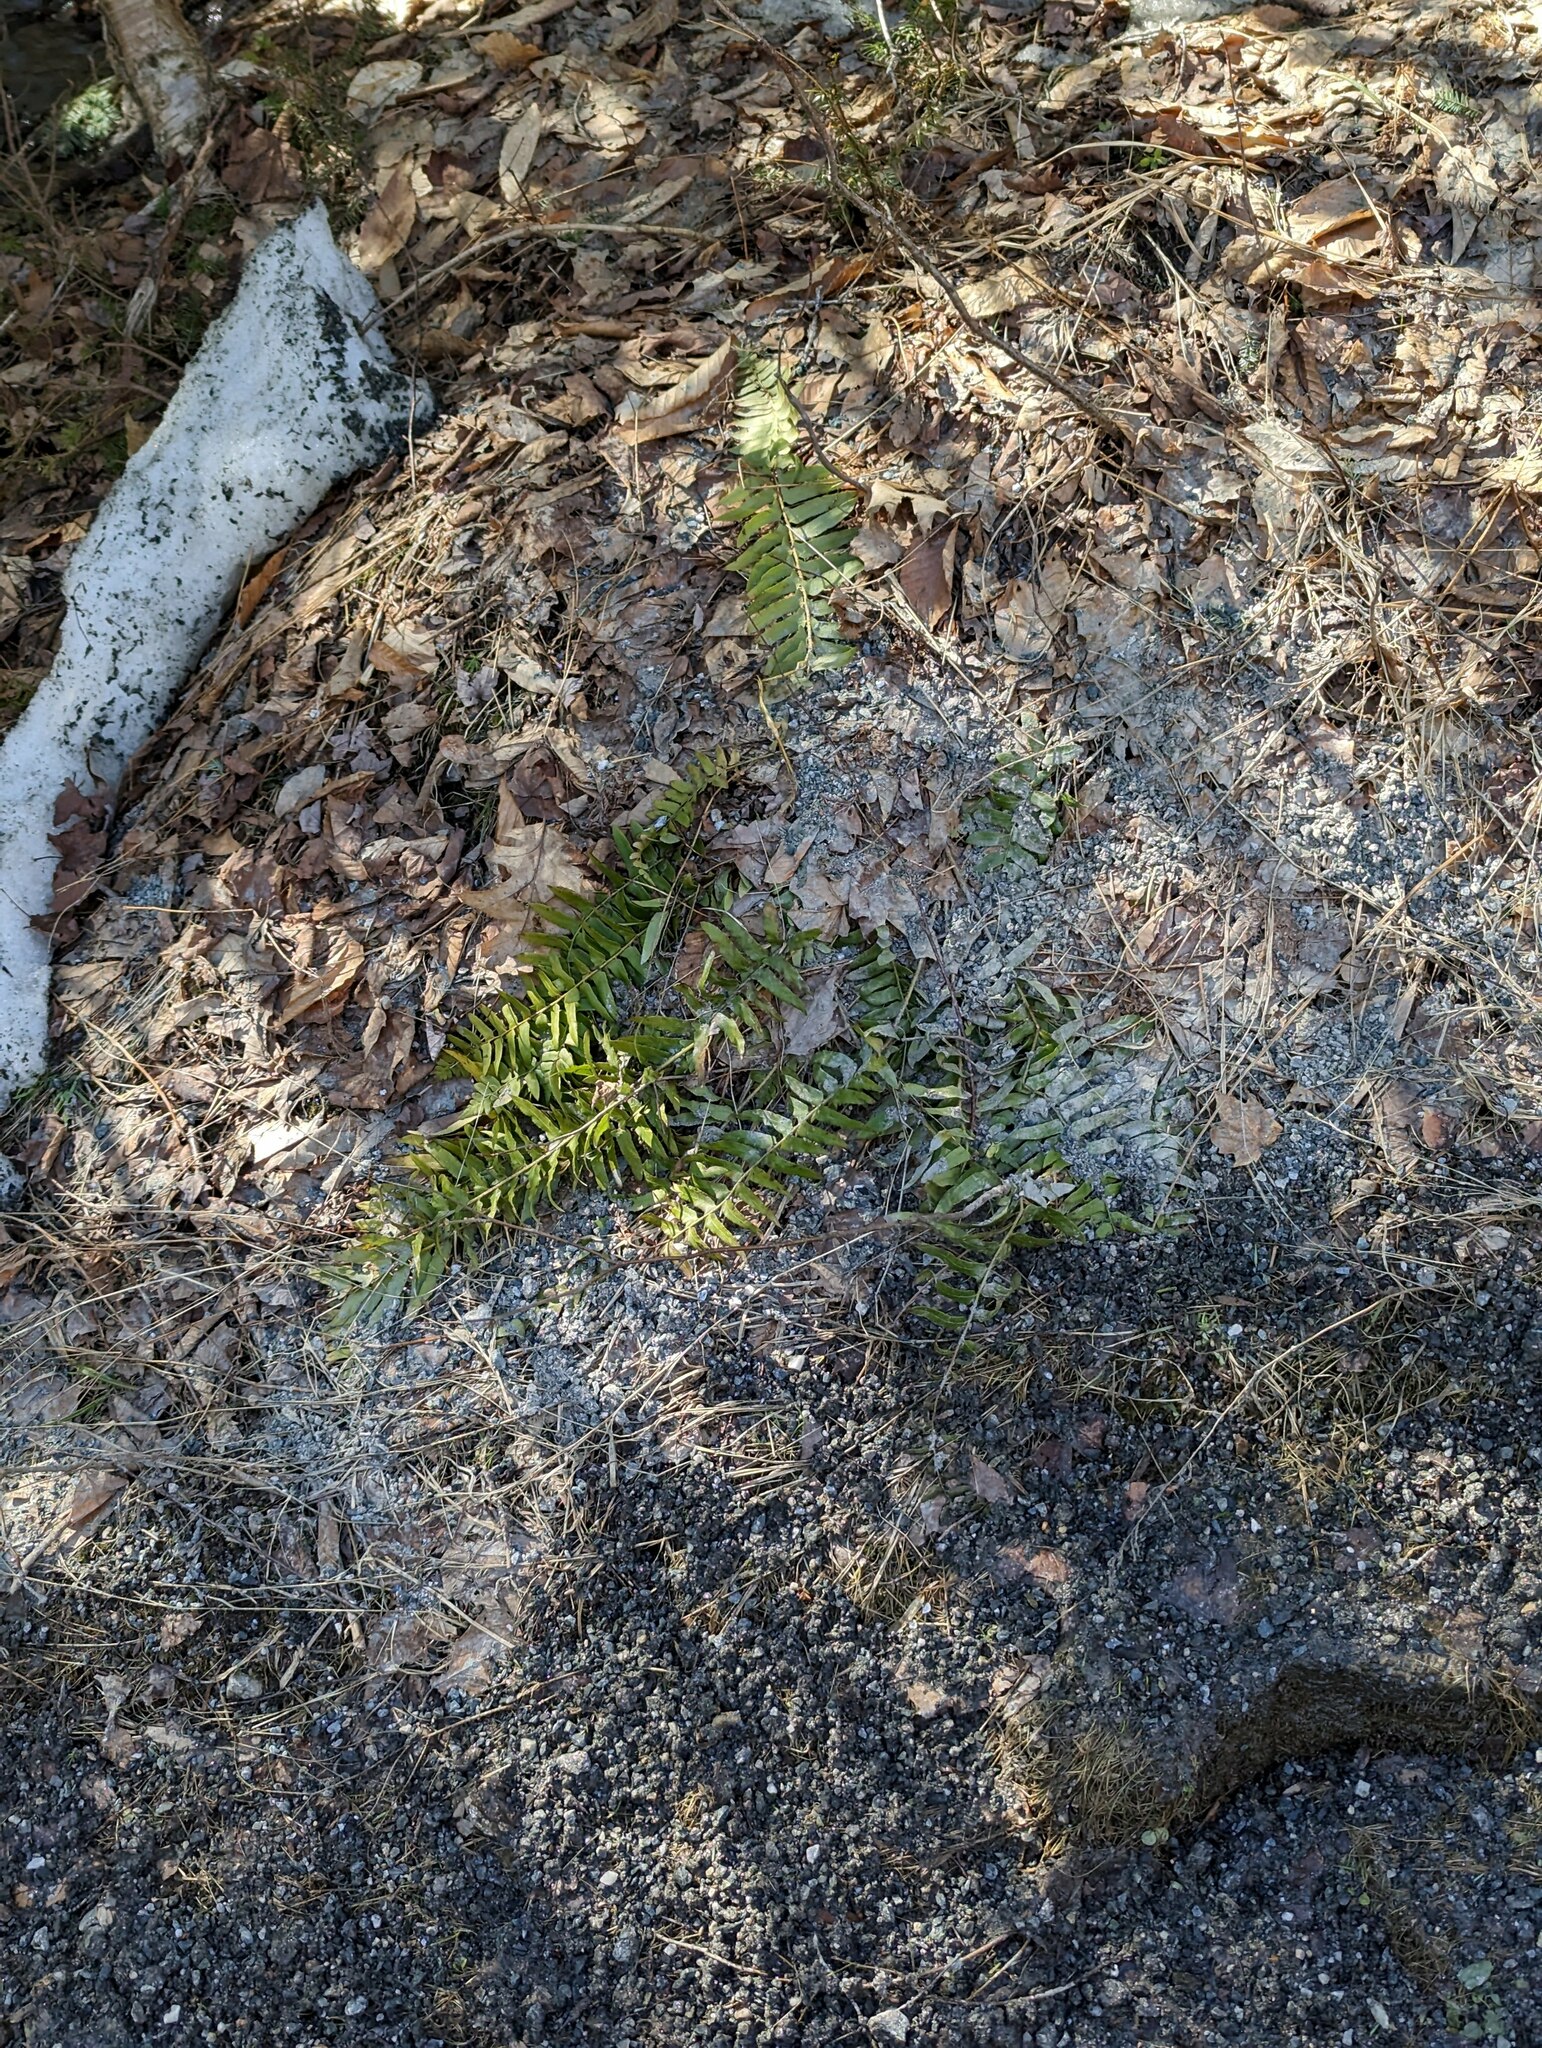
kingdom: Plantae
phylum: Tracheophyta
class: Polypodiopsida
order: Polypodiales
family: Dryopteridaceae
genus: Polystichum
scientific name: Polystichum acrostichoides
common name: Christmas fern
